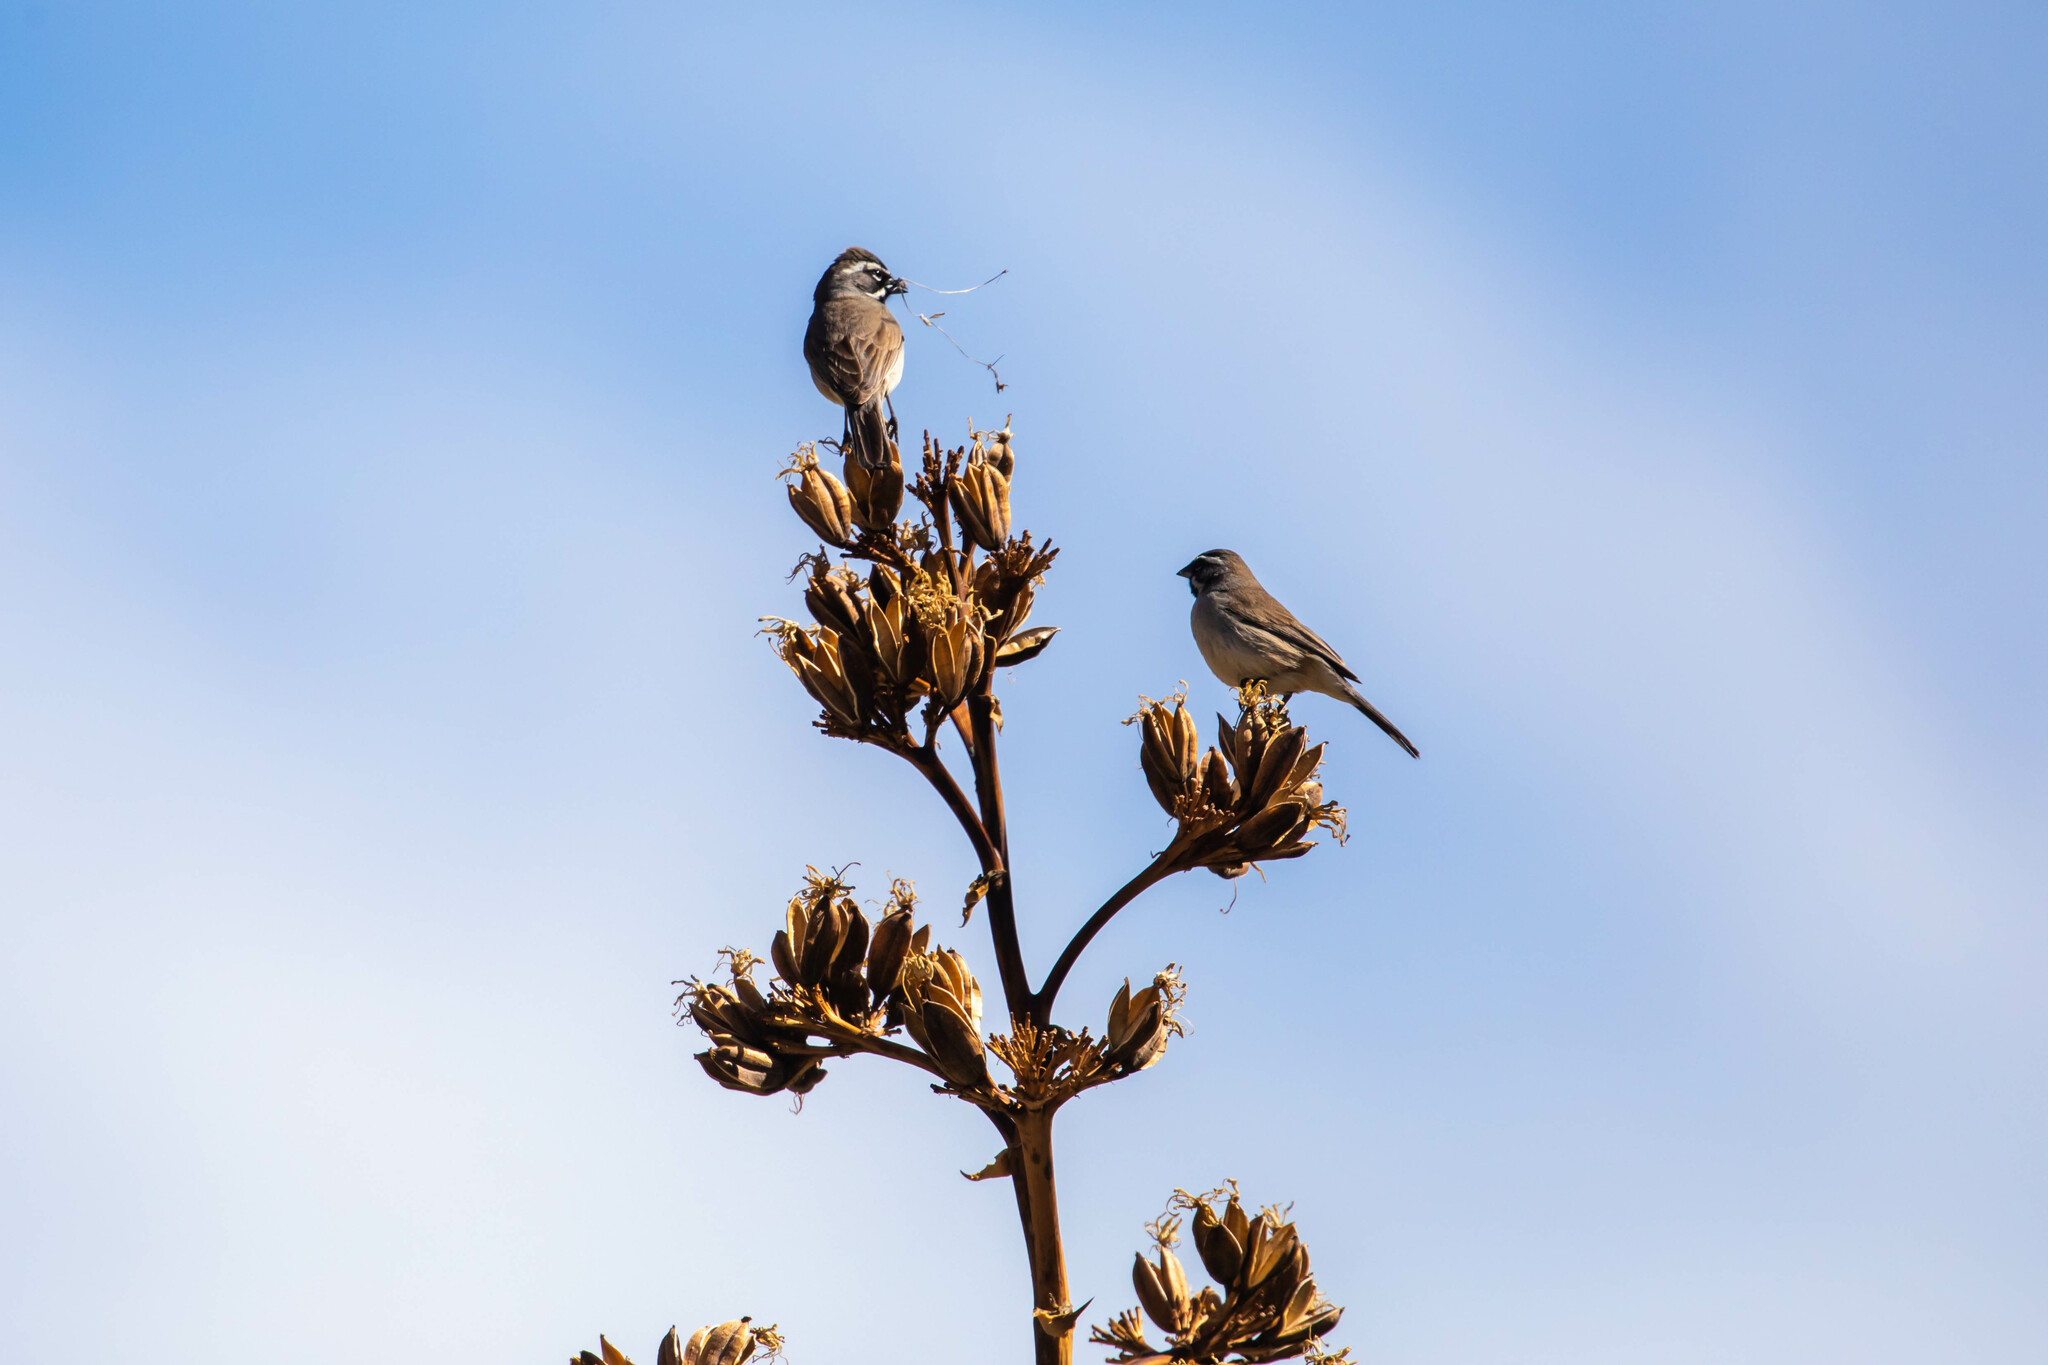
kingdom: Animalia
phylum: Chordata
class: Aves
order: Passeriformes
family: Passerellidae
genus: Amphispiza
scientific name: Amphispiza bilineata
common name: Black-throated sparrow
